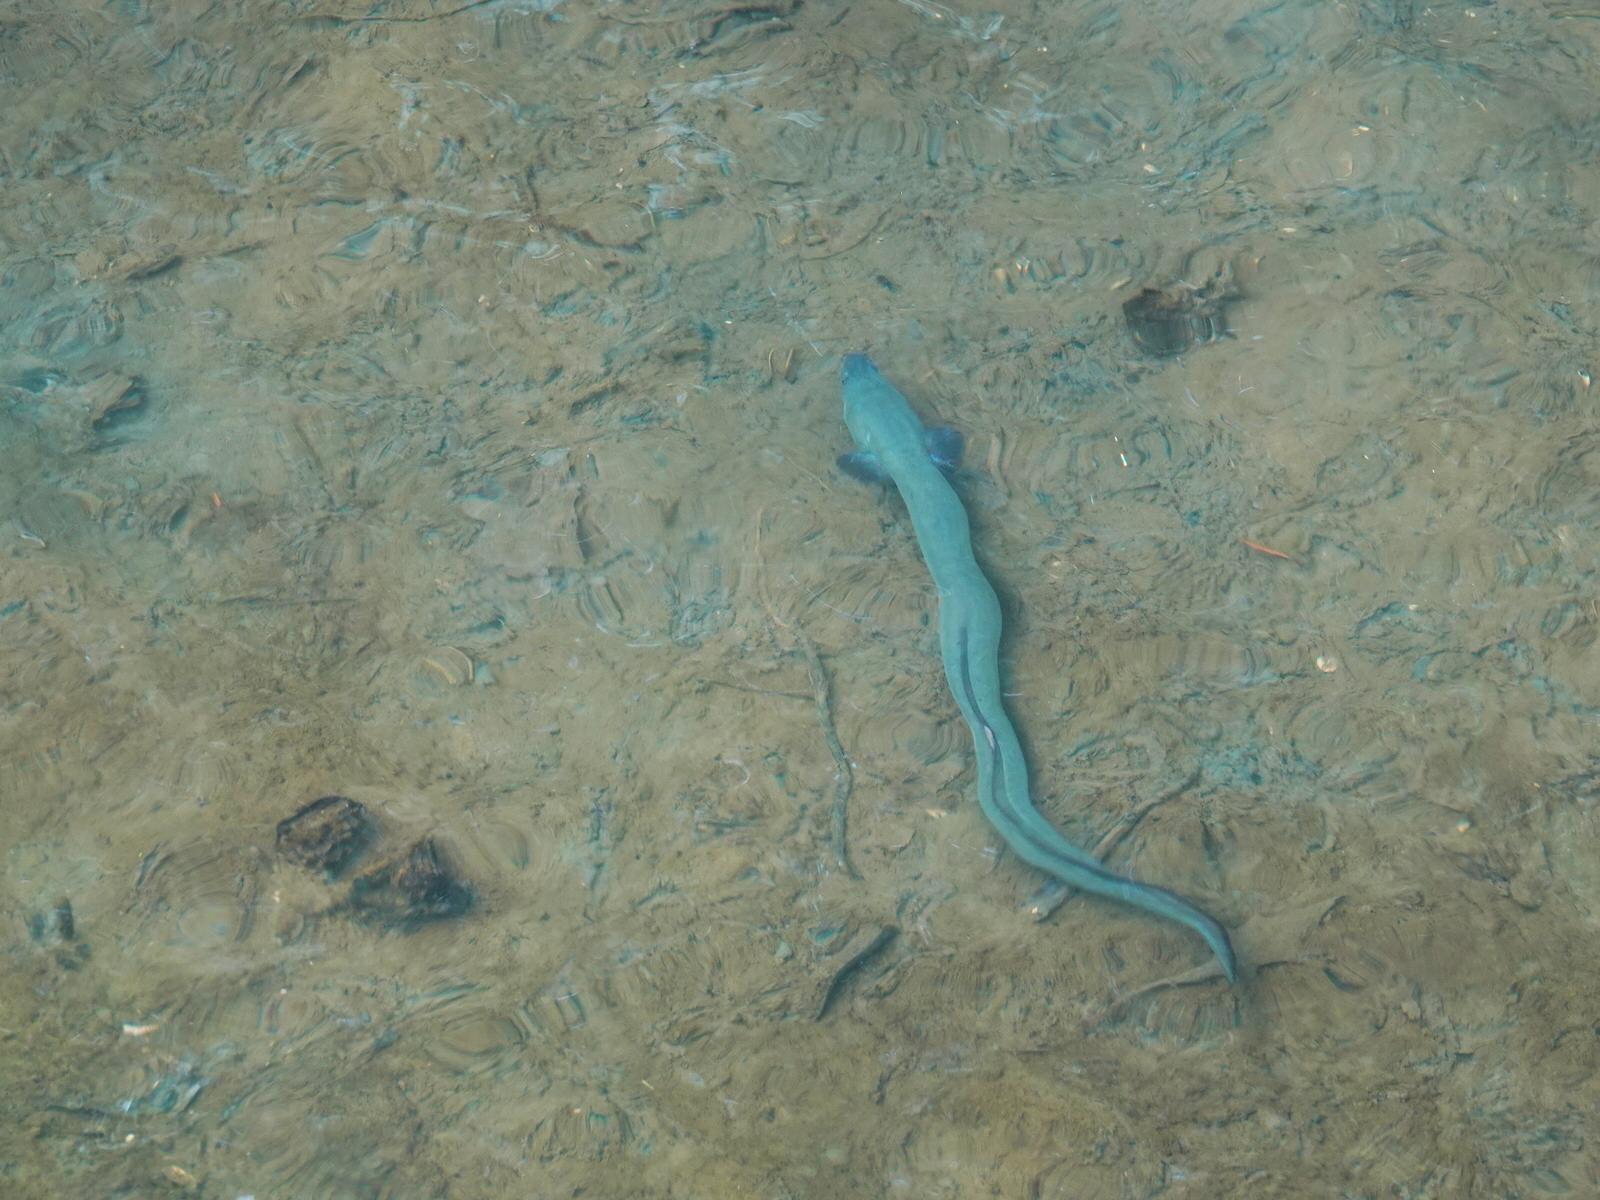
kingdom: Animalia
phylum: Chordata
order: Anguilliformes
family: Anguillidae
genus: Anguilla
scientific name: Anguilla australis
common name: Shortfin eel
